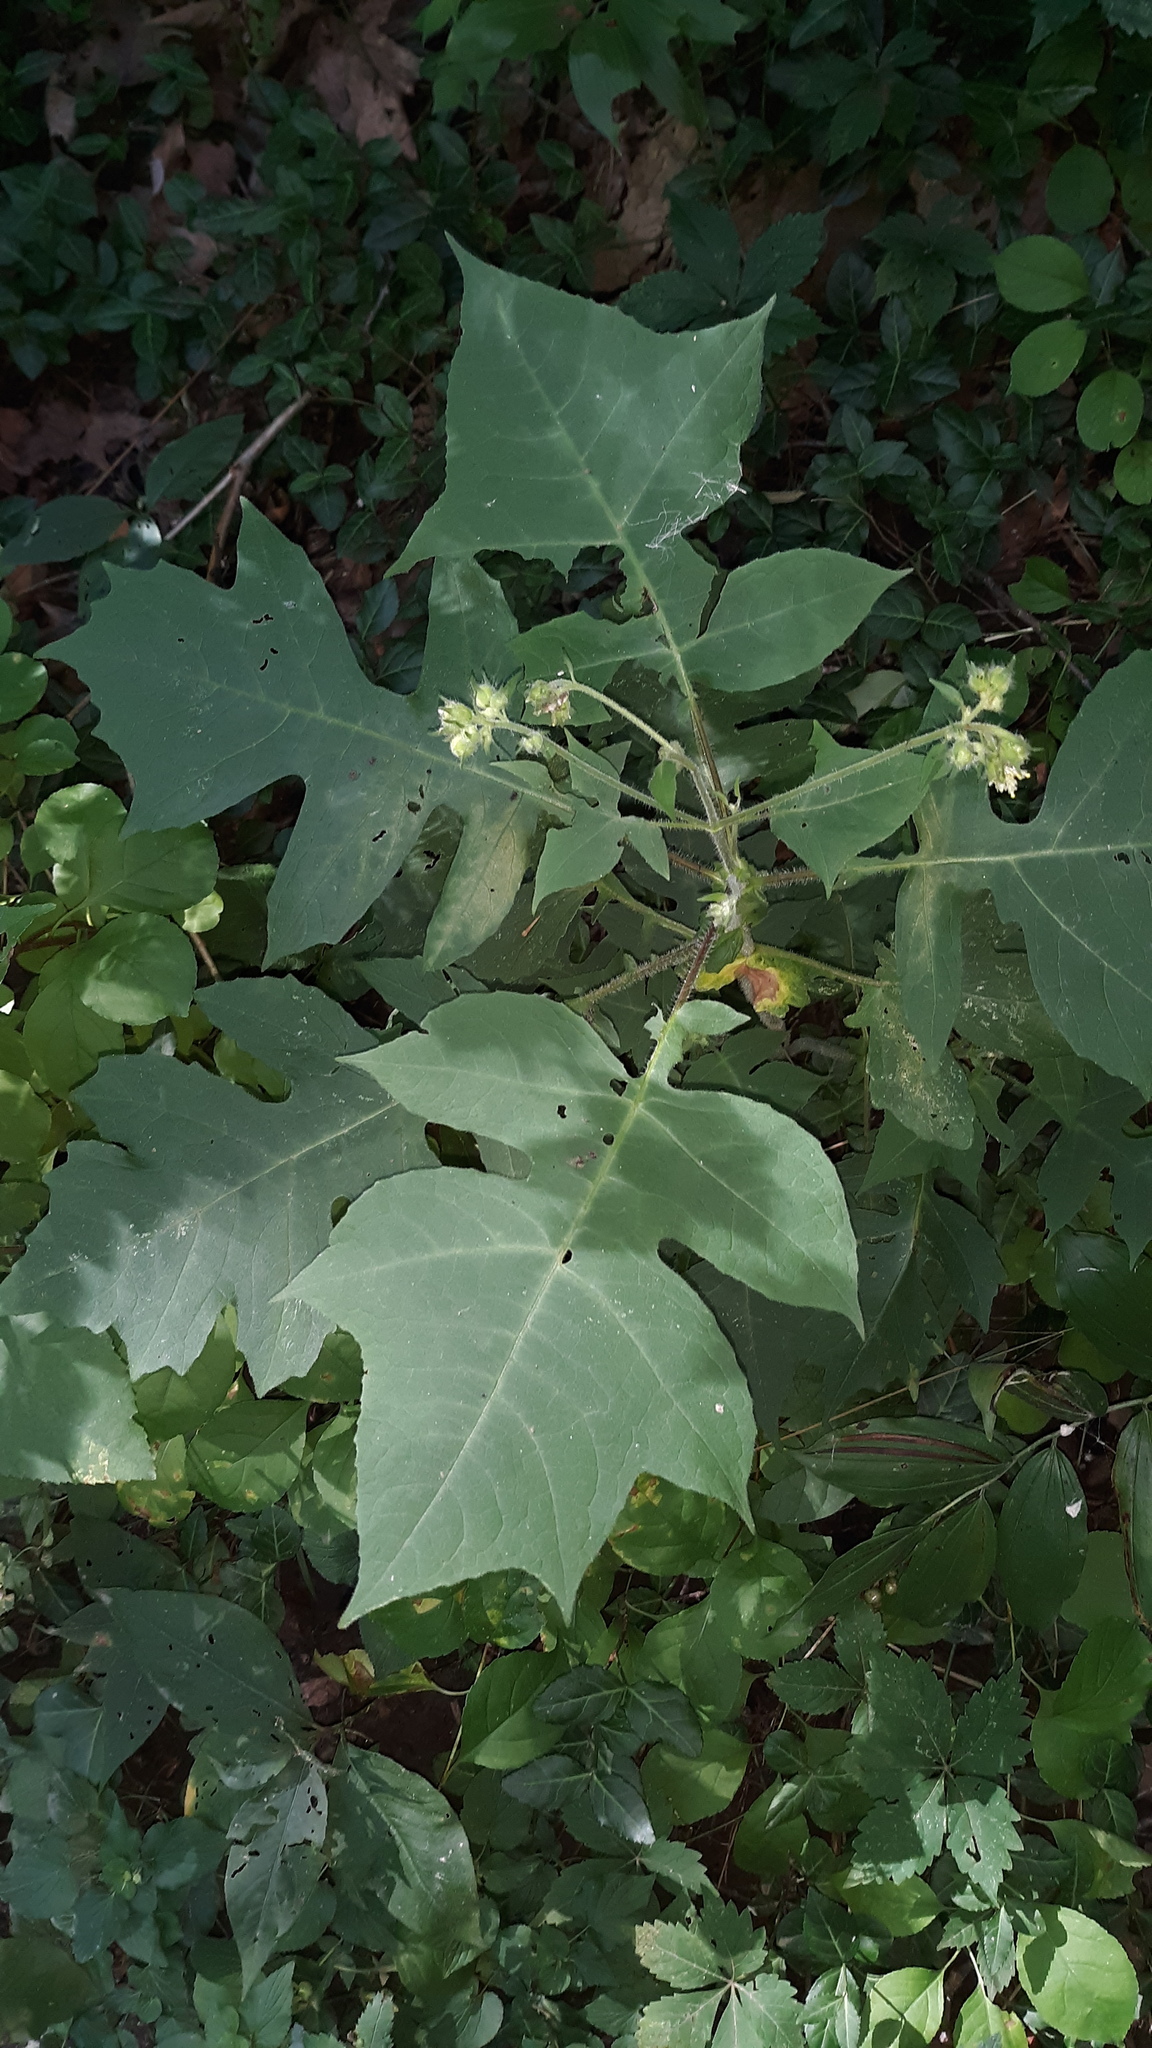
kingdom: Plantae
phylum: Tracheophyta
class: Magnoliopsida
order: Asterales
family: Asteraceae
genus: Polymnia
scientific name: Polymnia canadensis
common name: Pale-flowered leafcup
